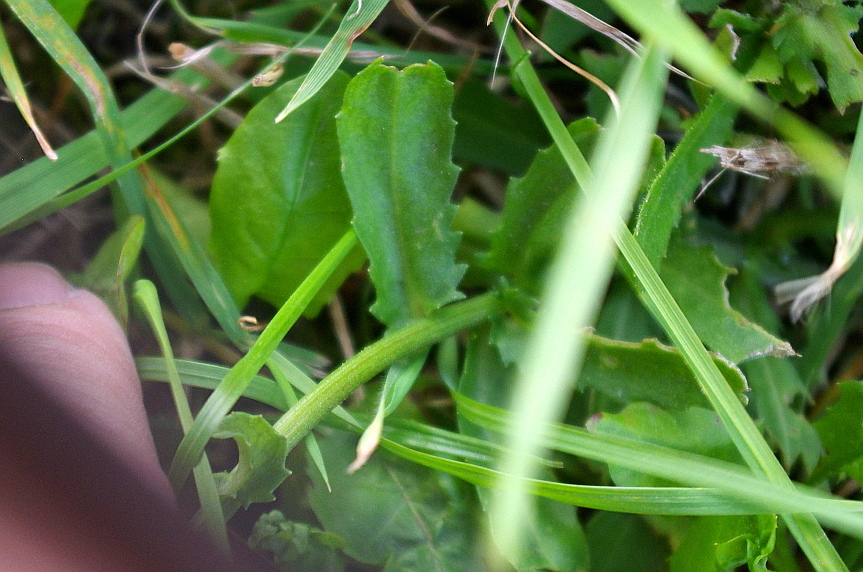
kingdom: Plantae
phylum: Tracheophyta
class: Magnoliopsida
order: Asterales
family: Asteraceae
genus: Leucanthemum
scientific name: Leucanthemum vulgare
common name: Oxeye daisy
